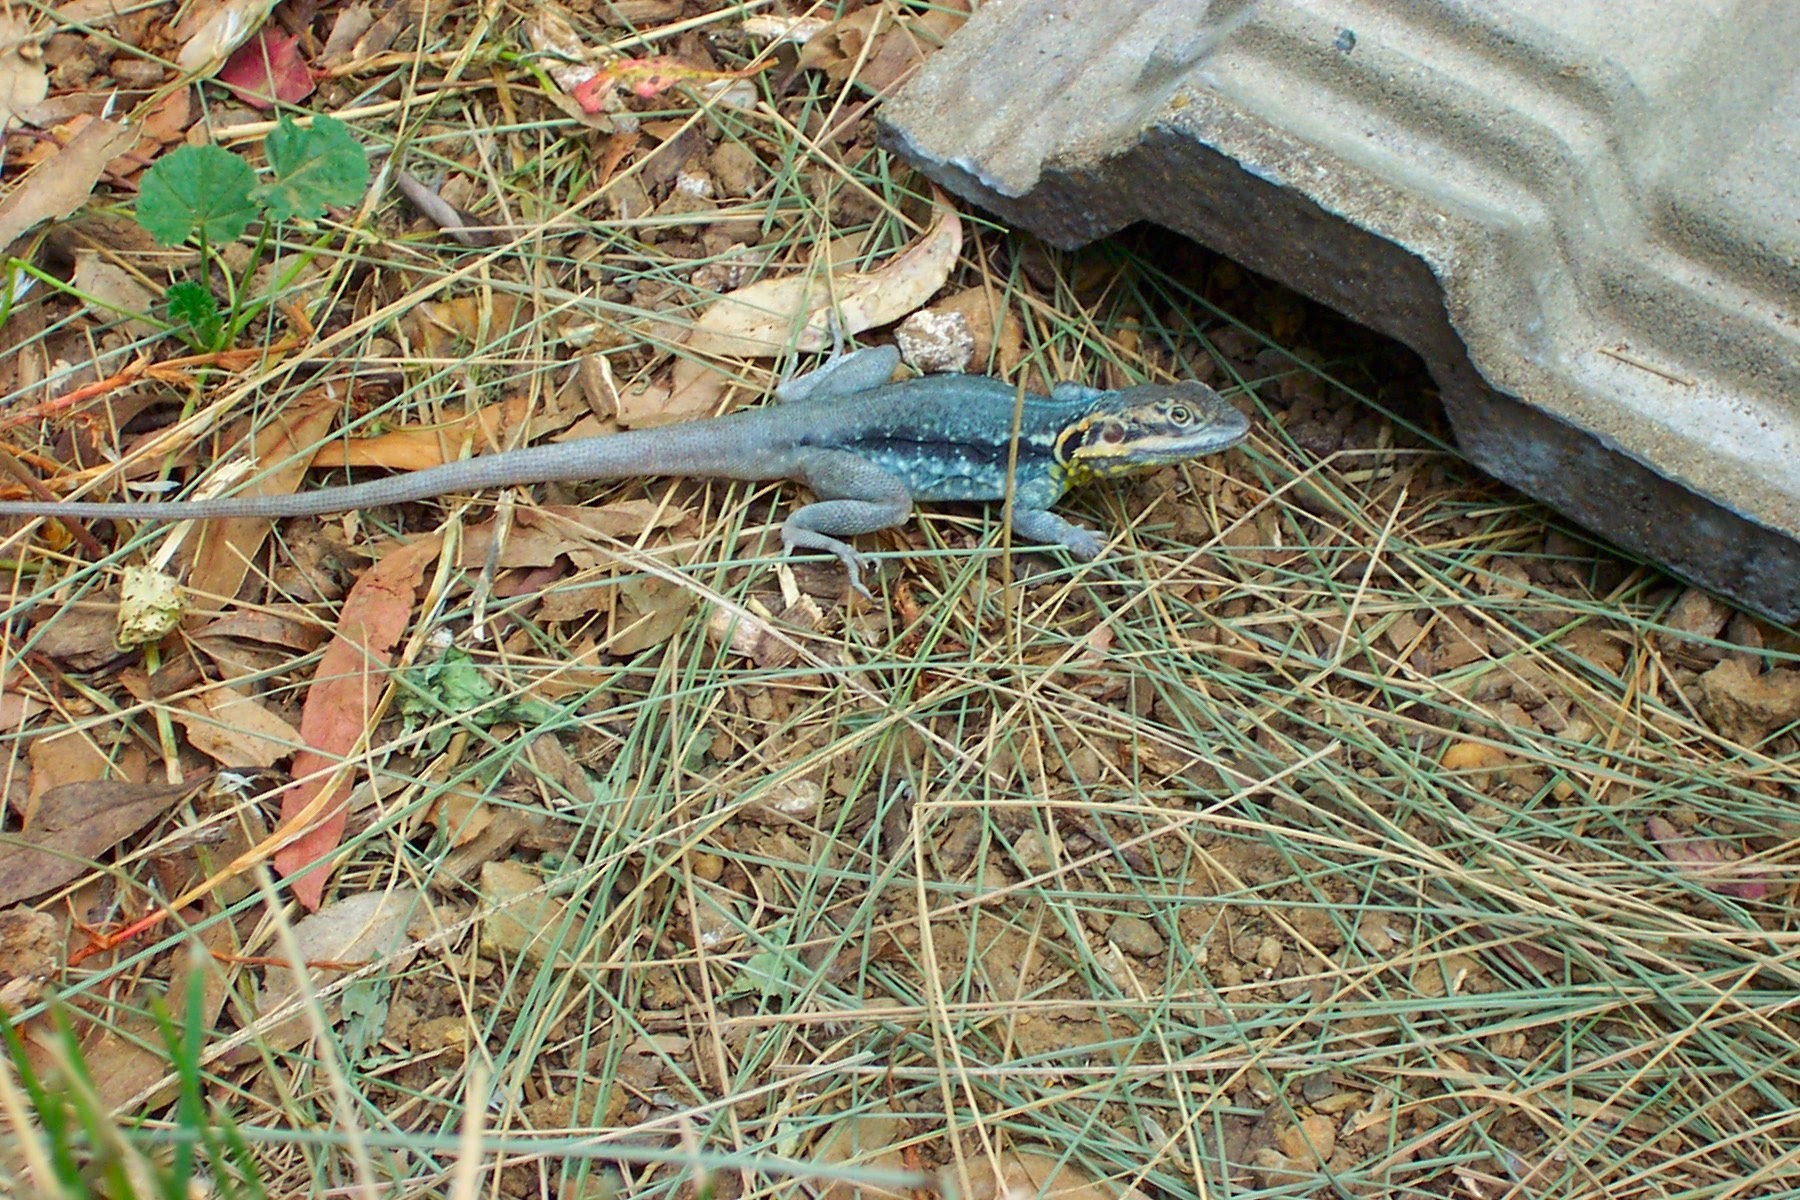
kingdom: Animalia
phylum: Chordata
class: Squamata
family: Agamidae
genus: Ctenophorus
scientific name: Ctenophorus modestus
